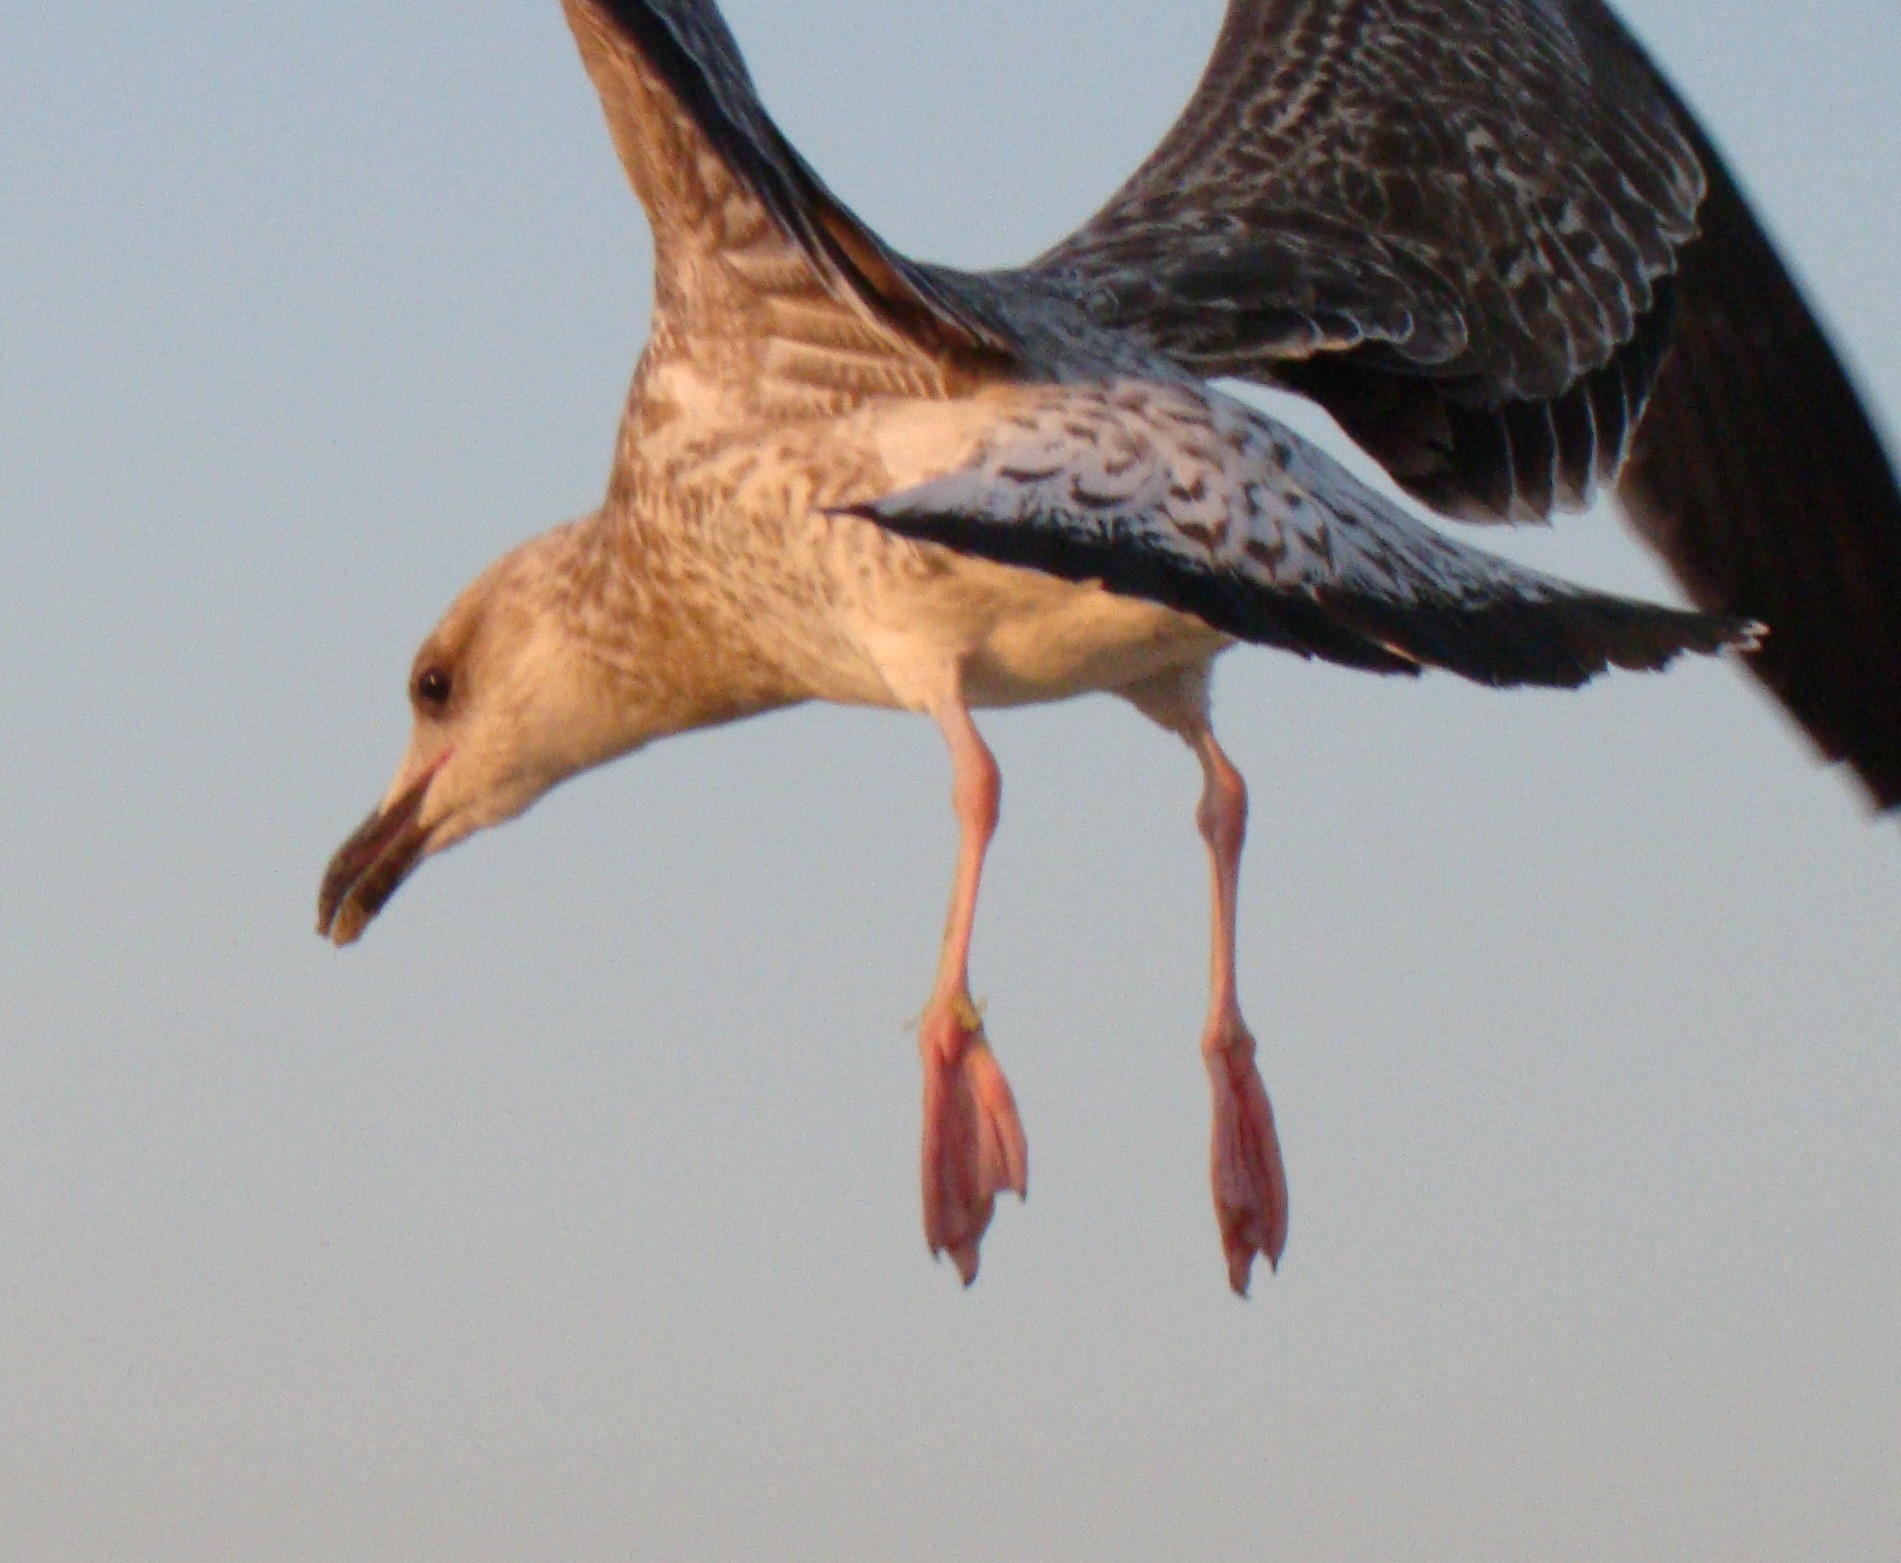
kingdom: Animalia
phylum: Chordata
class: Aves
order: Charadriiformes
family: Laridae
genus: Larus
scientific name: Larus michahellis
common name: Yellow-legged gull
